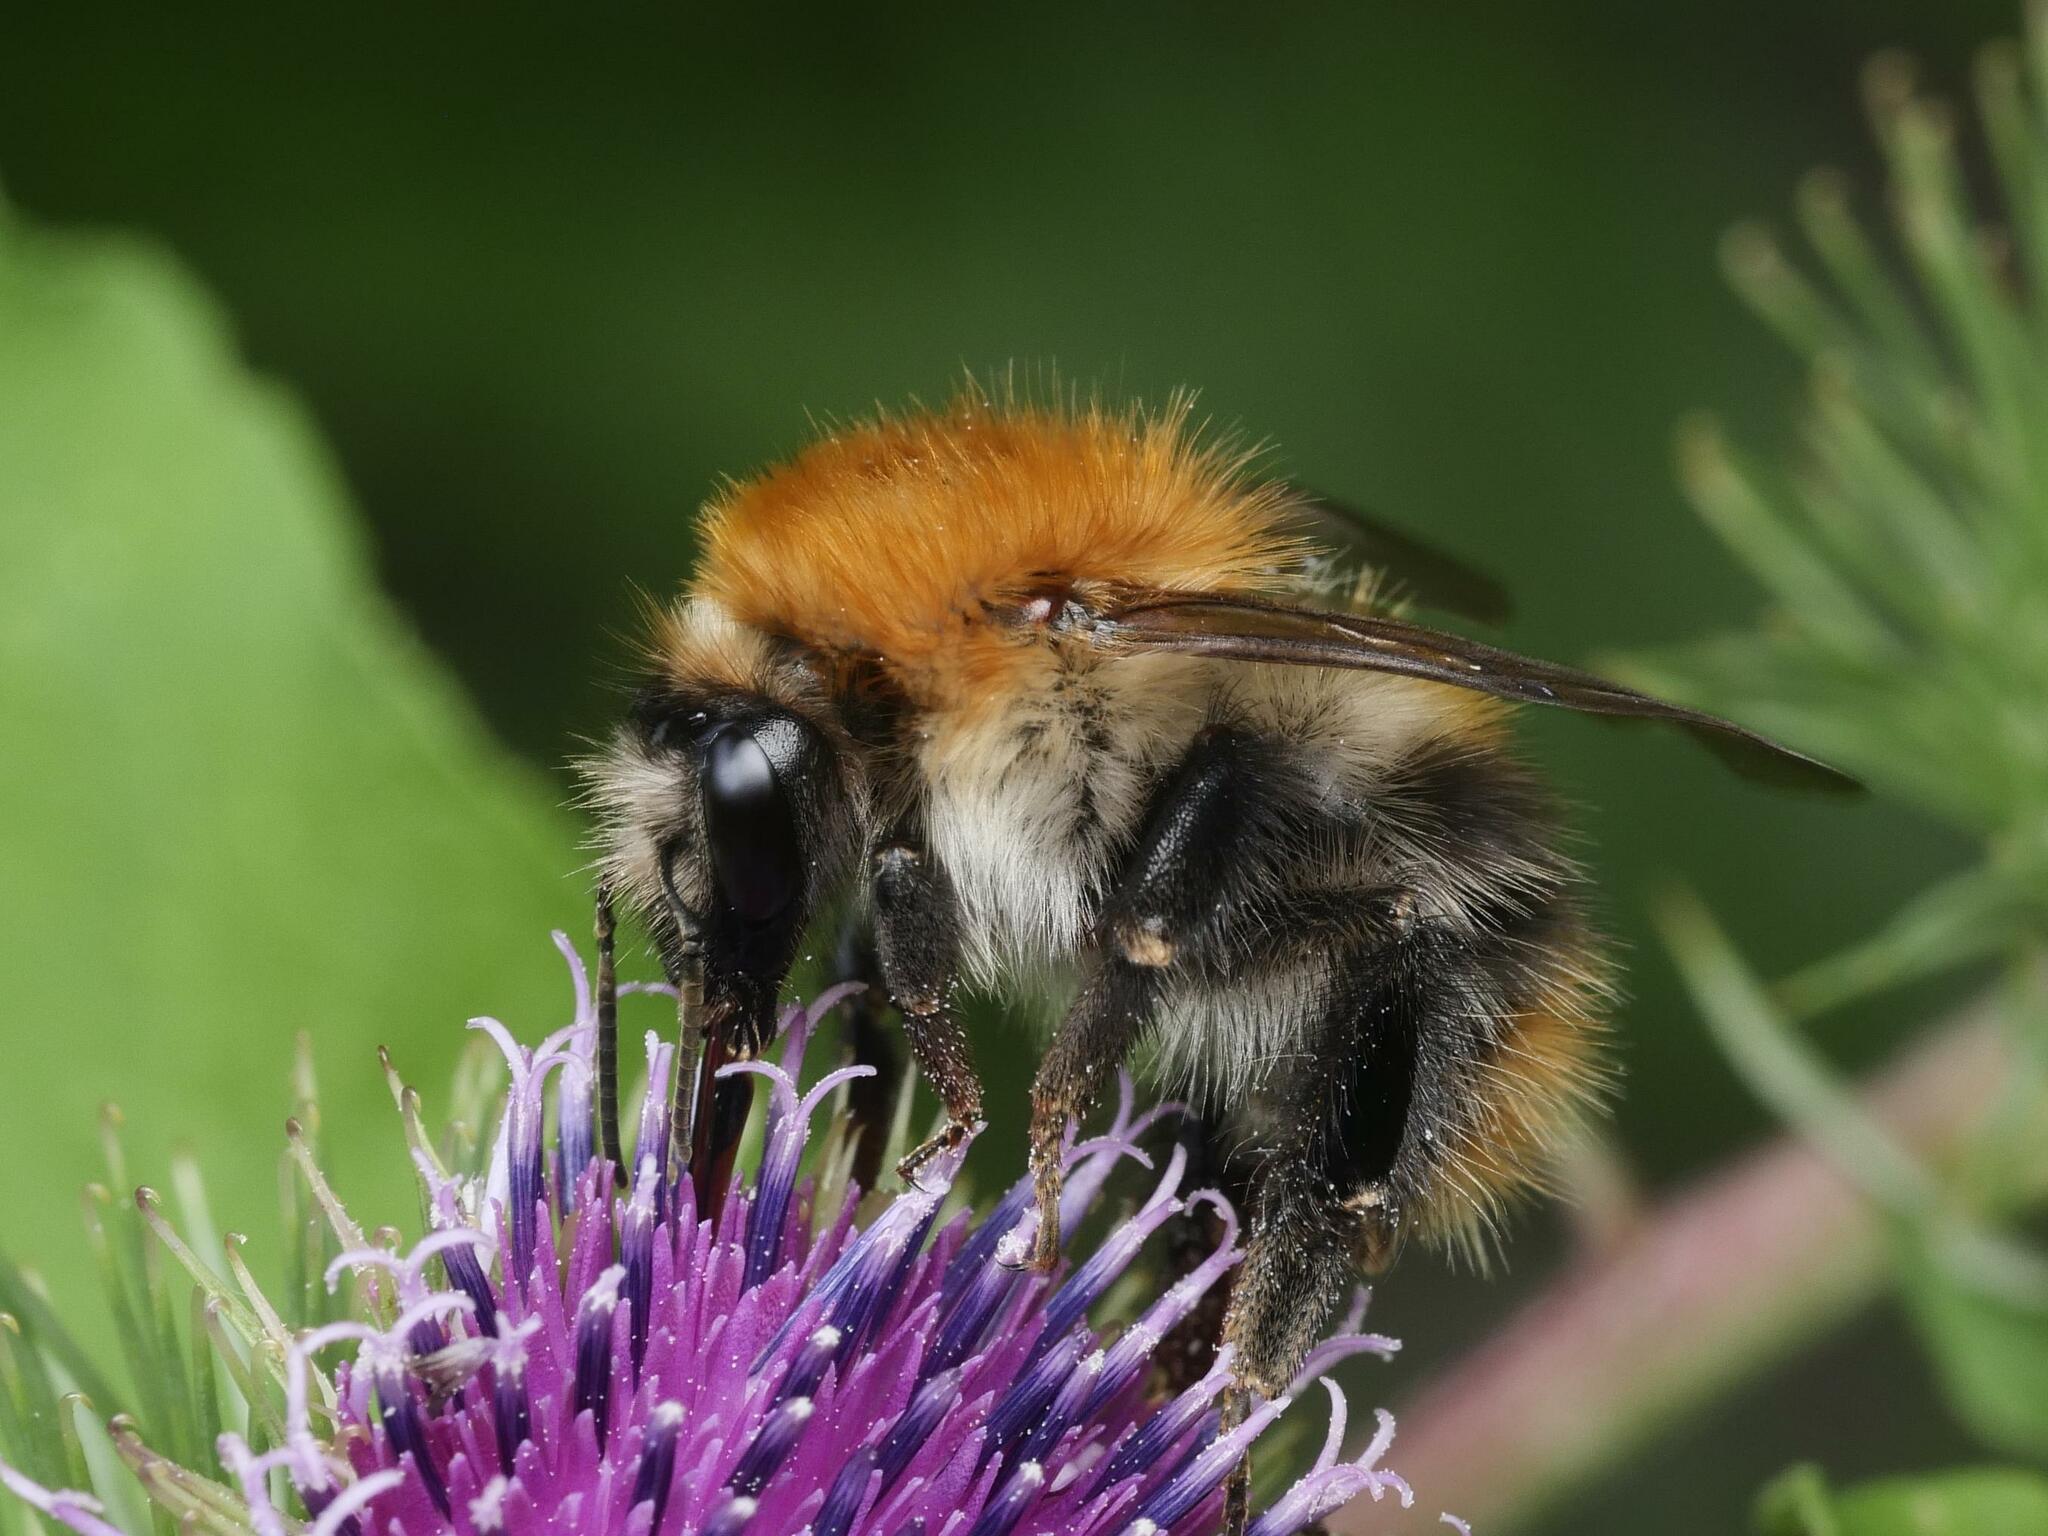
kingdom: Animalia
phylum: Arthropoda
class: Insecta
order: Hymenoptera
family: Apidae
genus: Bombus
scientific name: Bombus pascuorum
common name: Common carder bee
